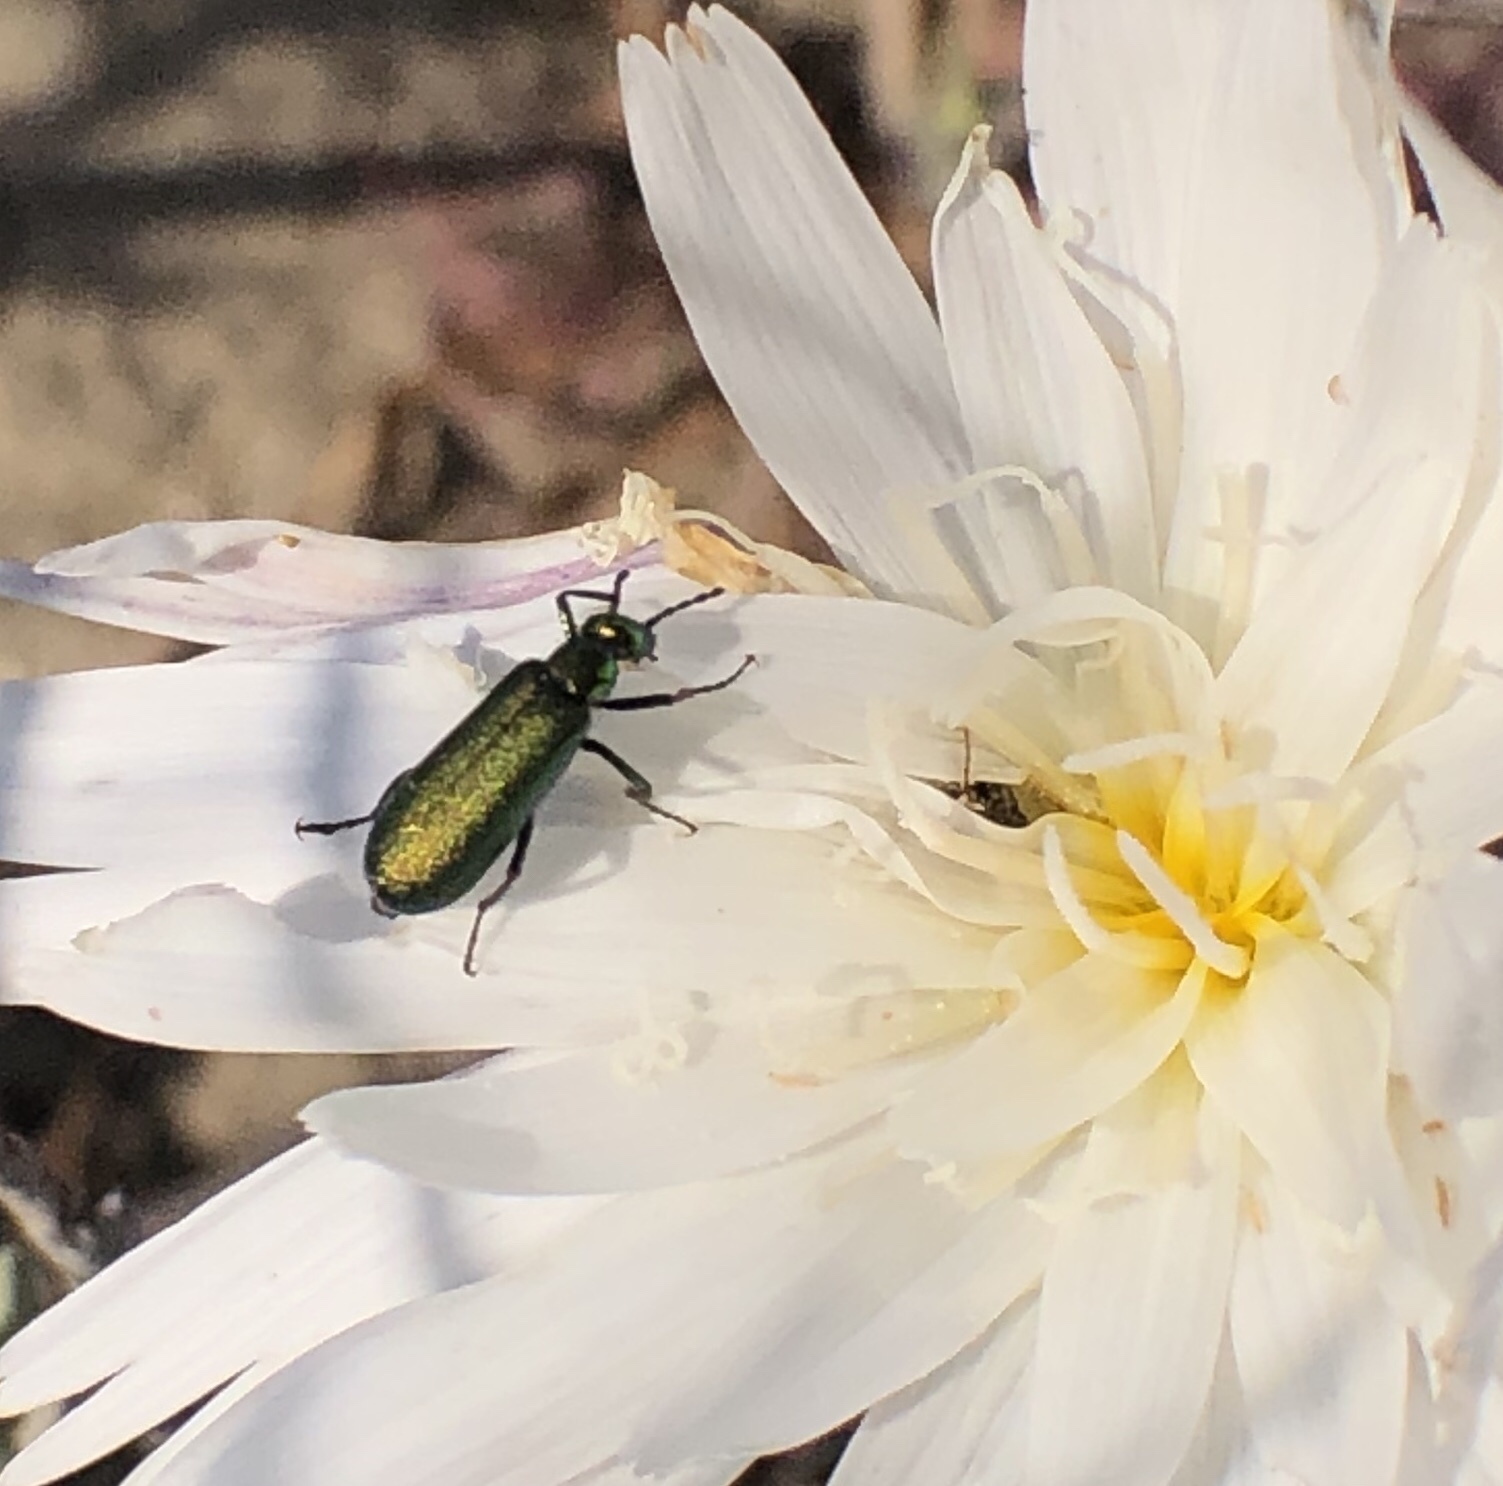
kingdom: Animalia
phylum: Arthropoda
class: Insecta
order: Coleoptera
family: Meloidae
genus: Lytta
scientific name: Lytta stygica
